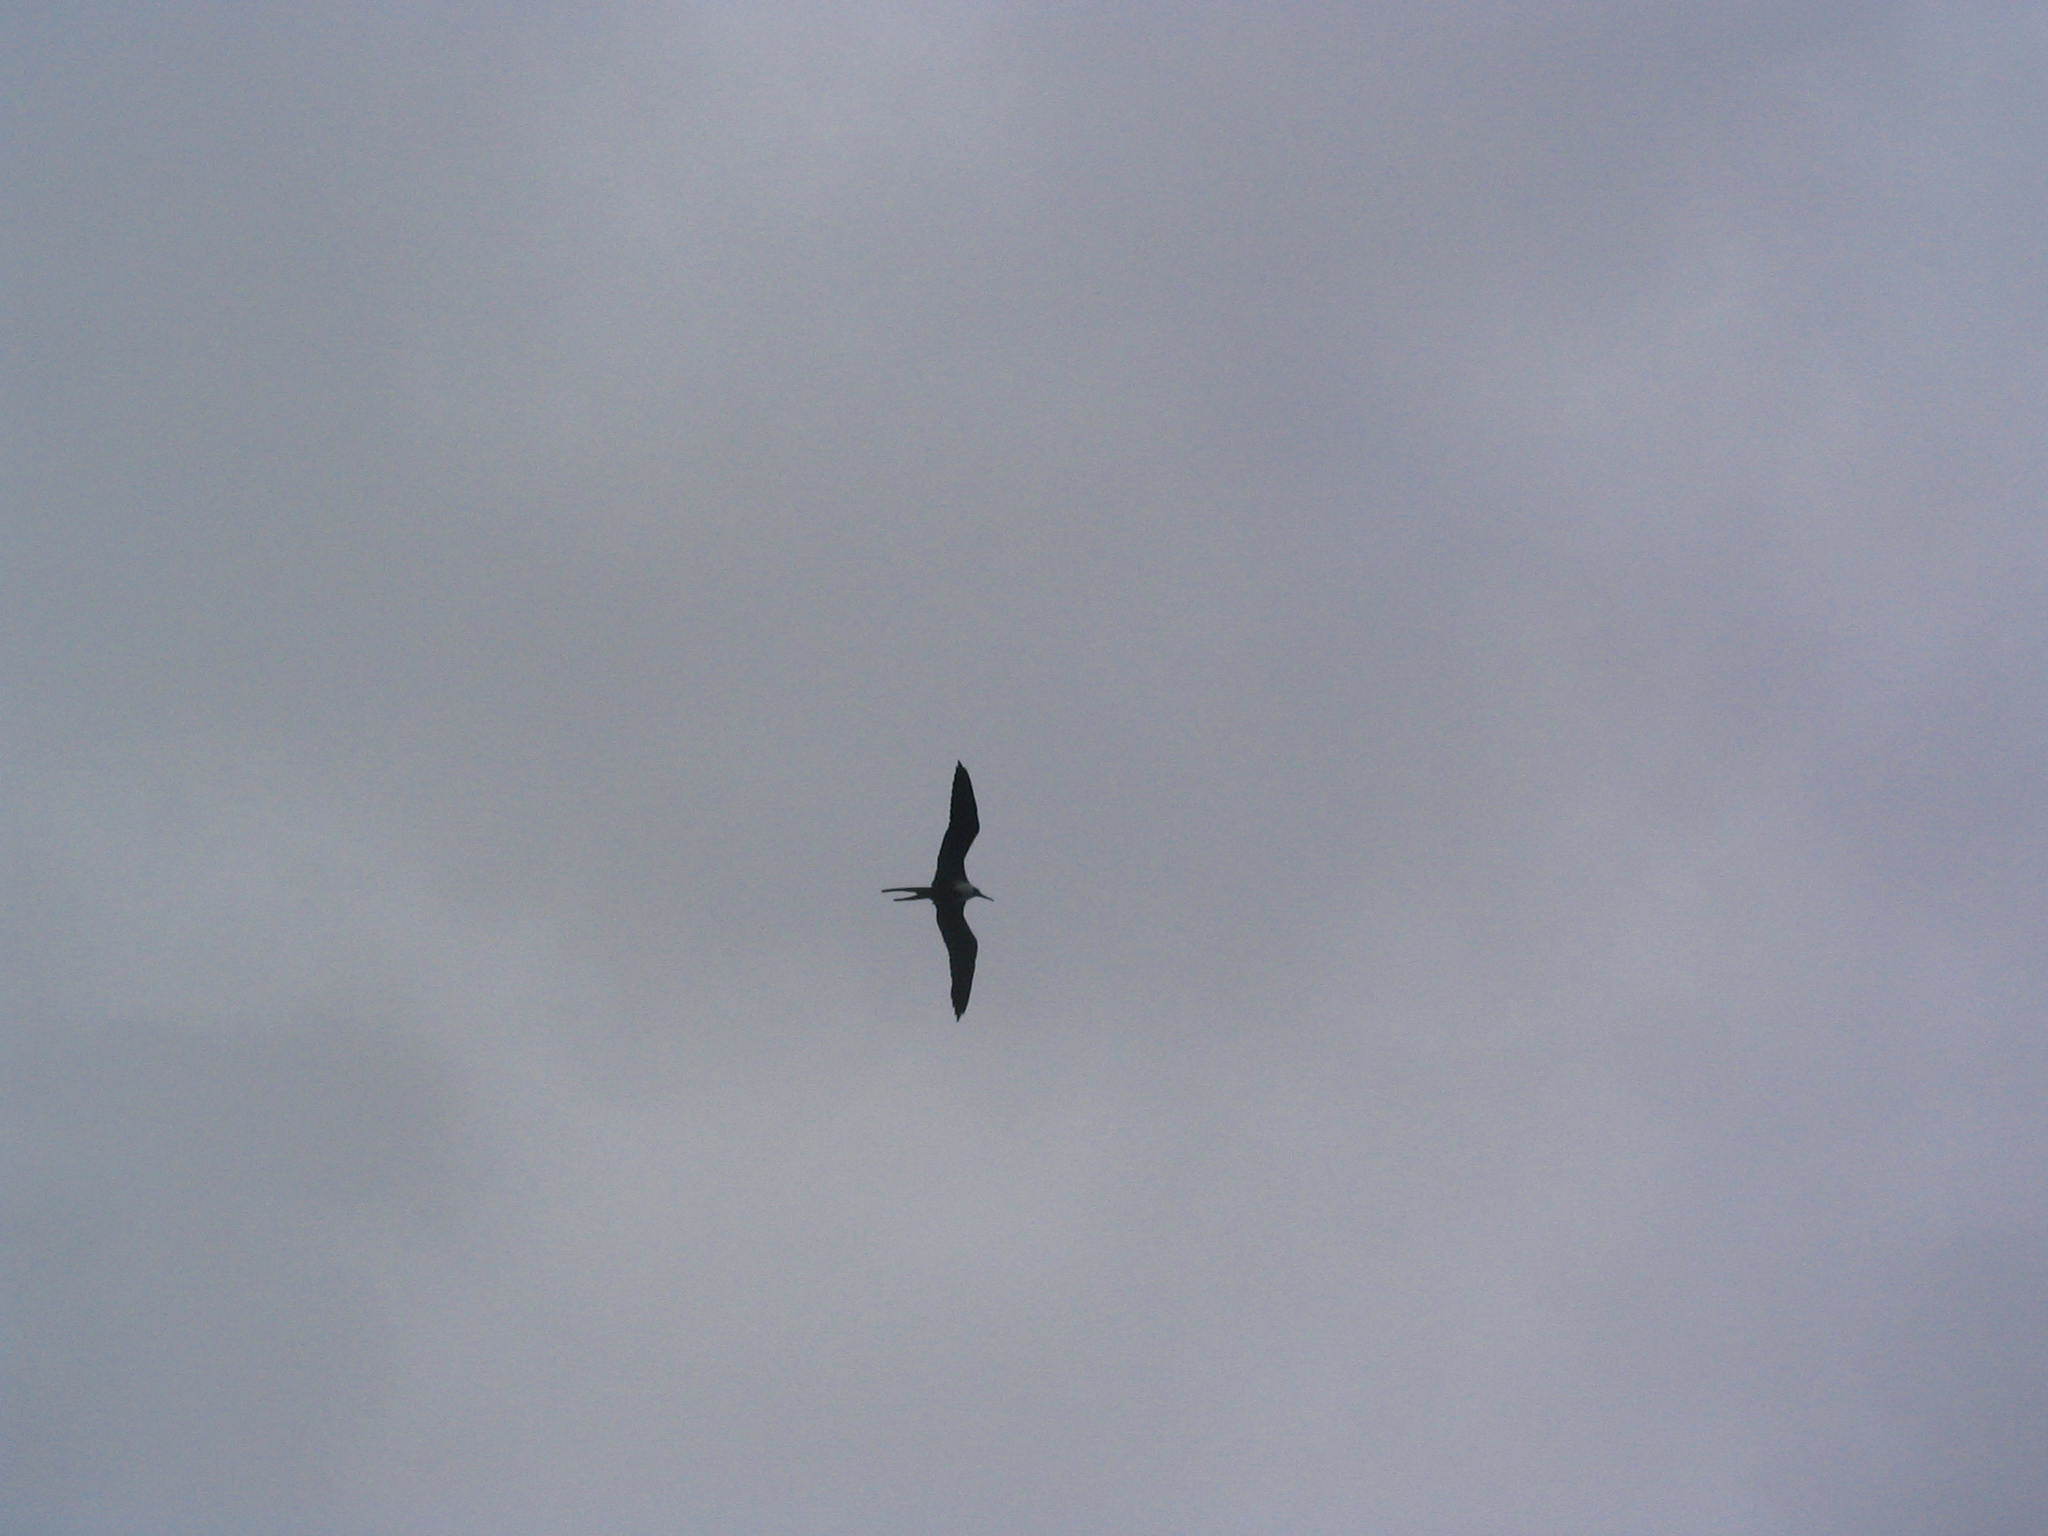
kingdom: Animalia
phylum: Chordata
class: Aves
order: Suliformes
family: Fregatidae
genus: Fregata
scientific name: Fregata magnificens
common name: Magnificent frigatebird
